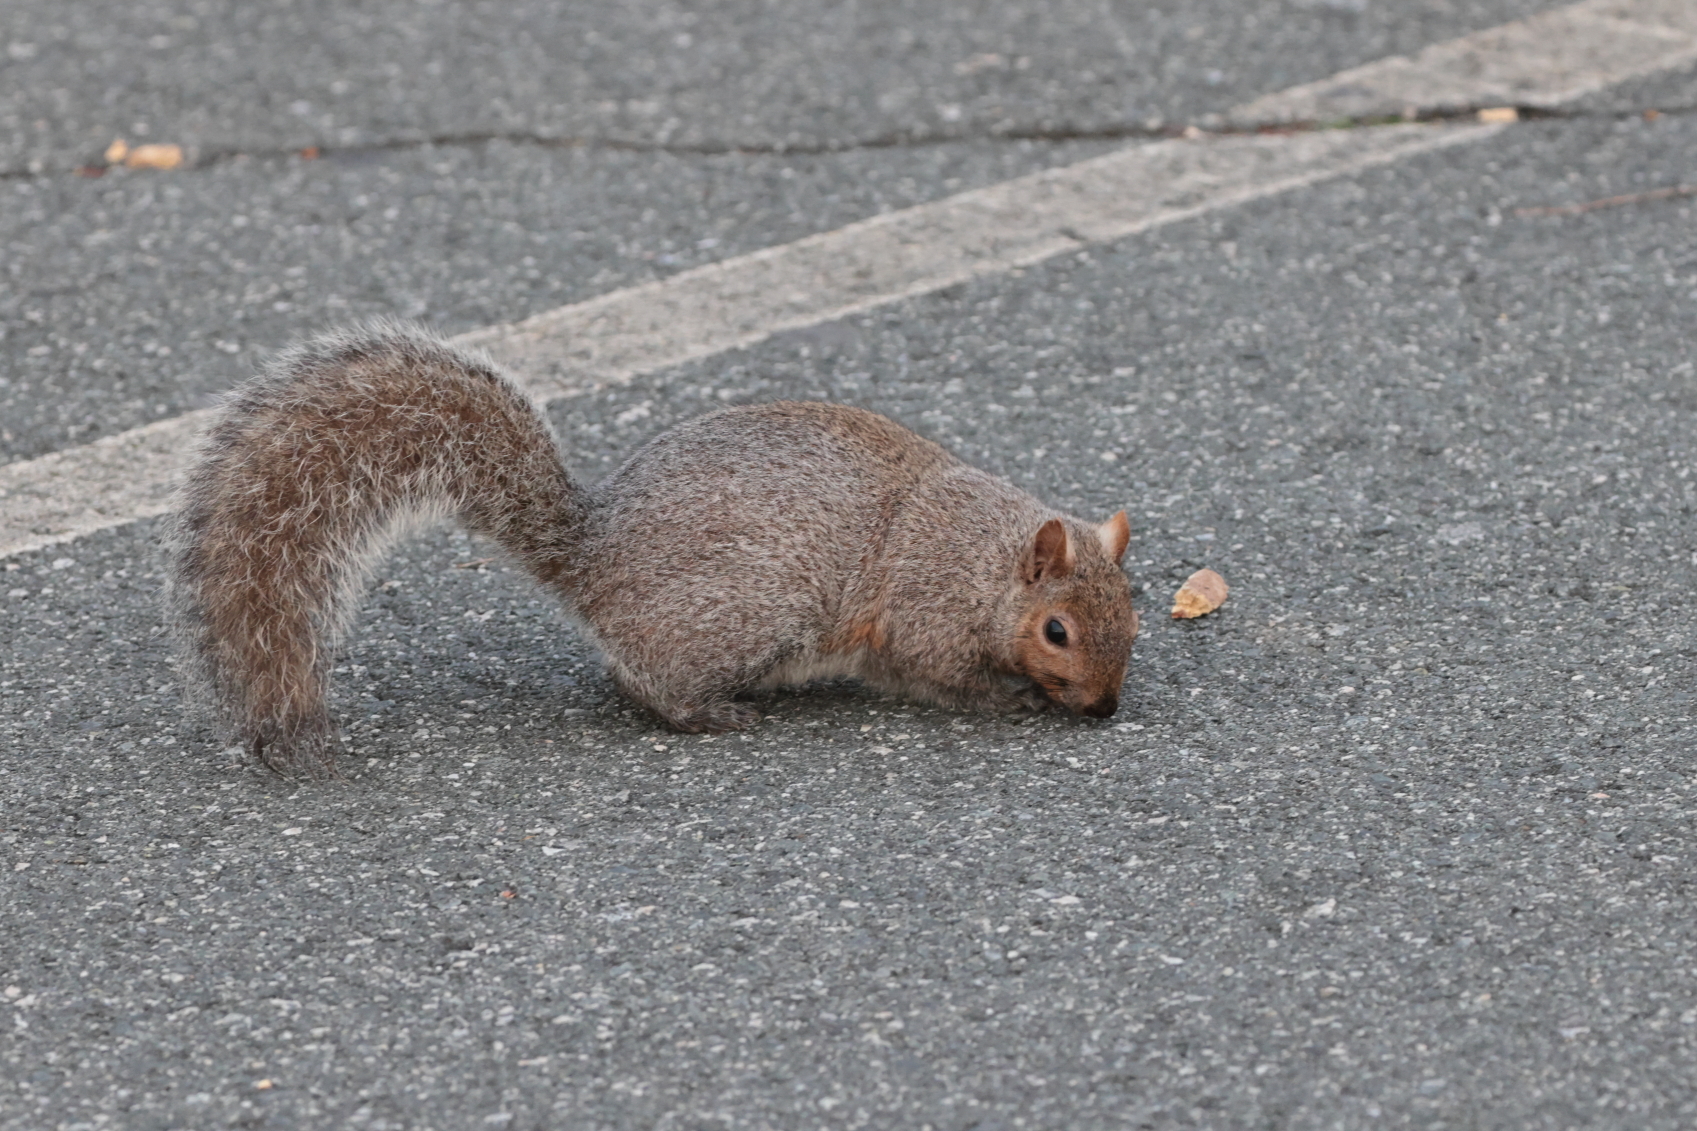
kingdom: Animalia
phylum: Chordata
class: Mammalia
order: Rodentia
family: Sciuridae
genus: Sciurus
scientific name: Sciurus carolinensis
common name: Eastern gray squirrel
